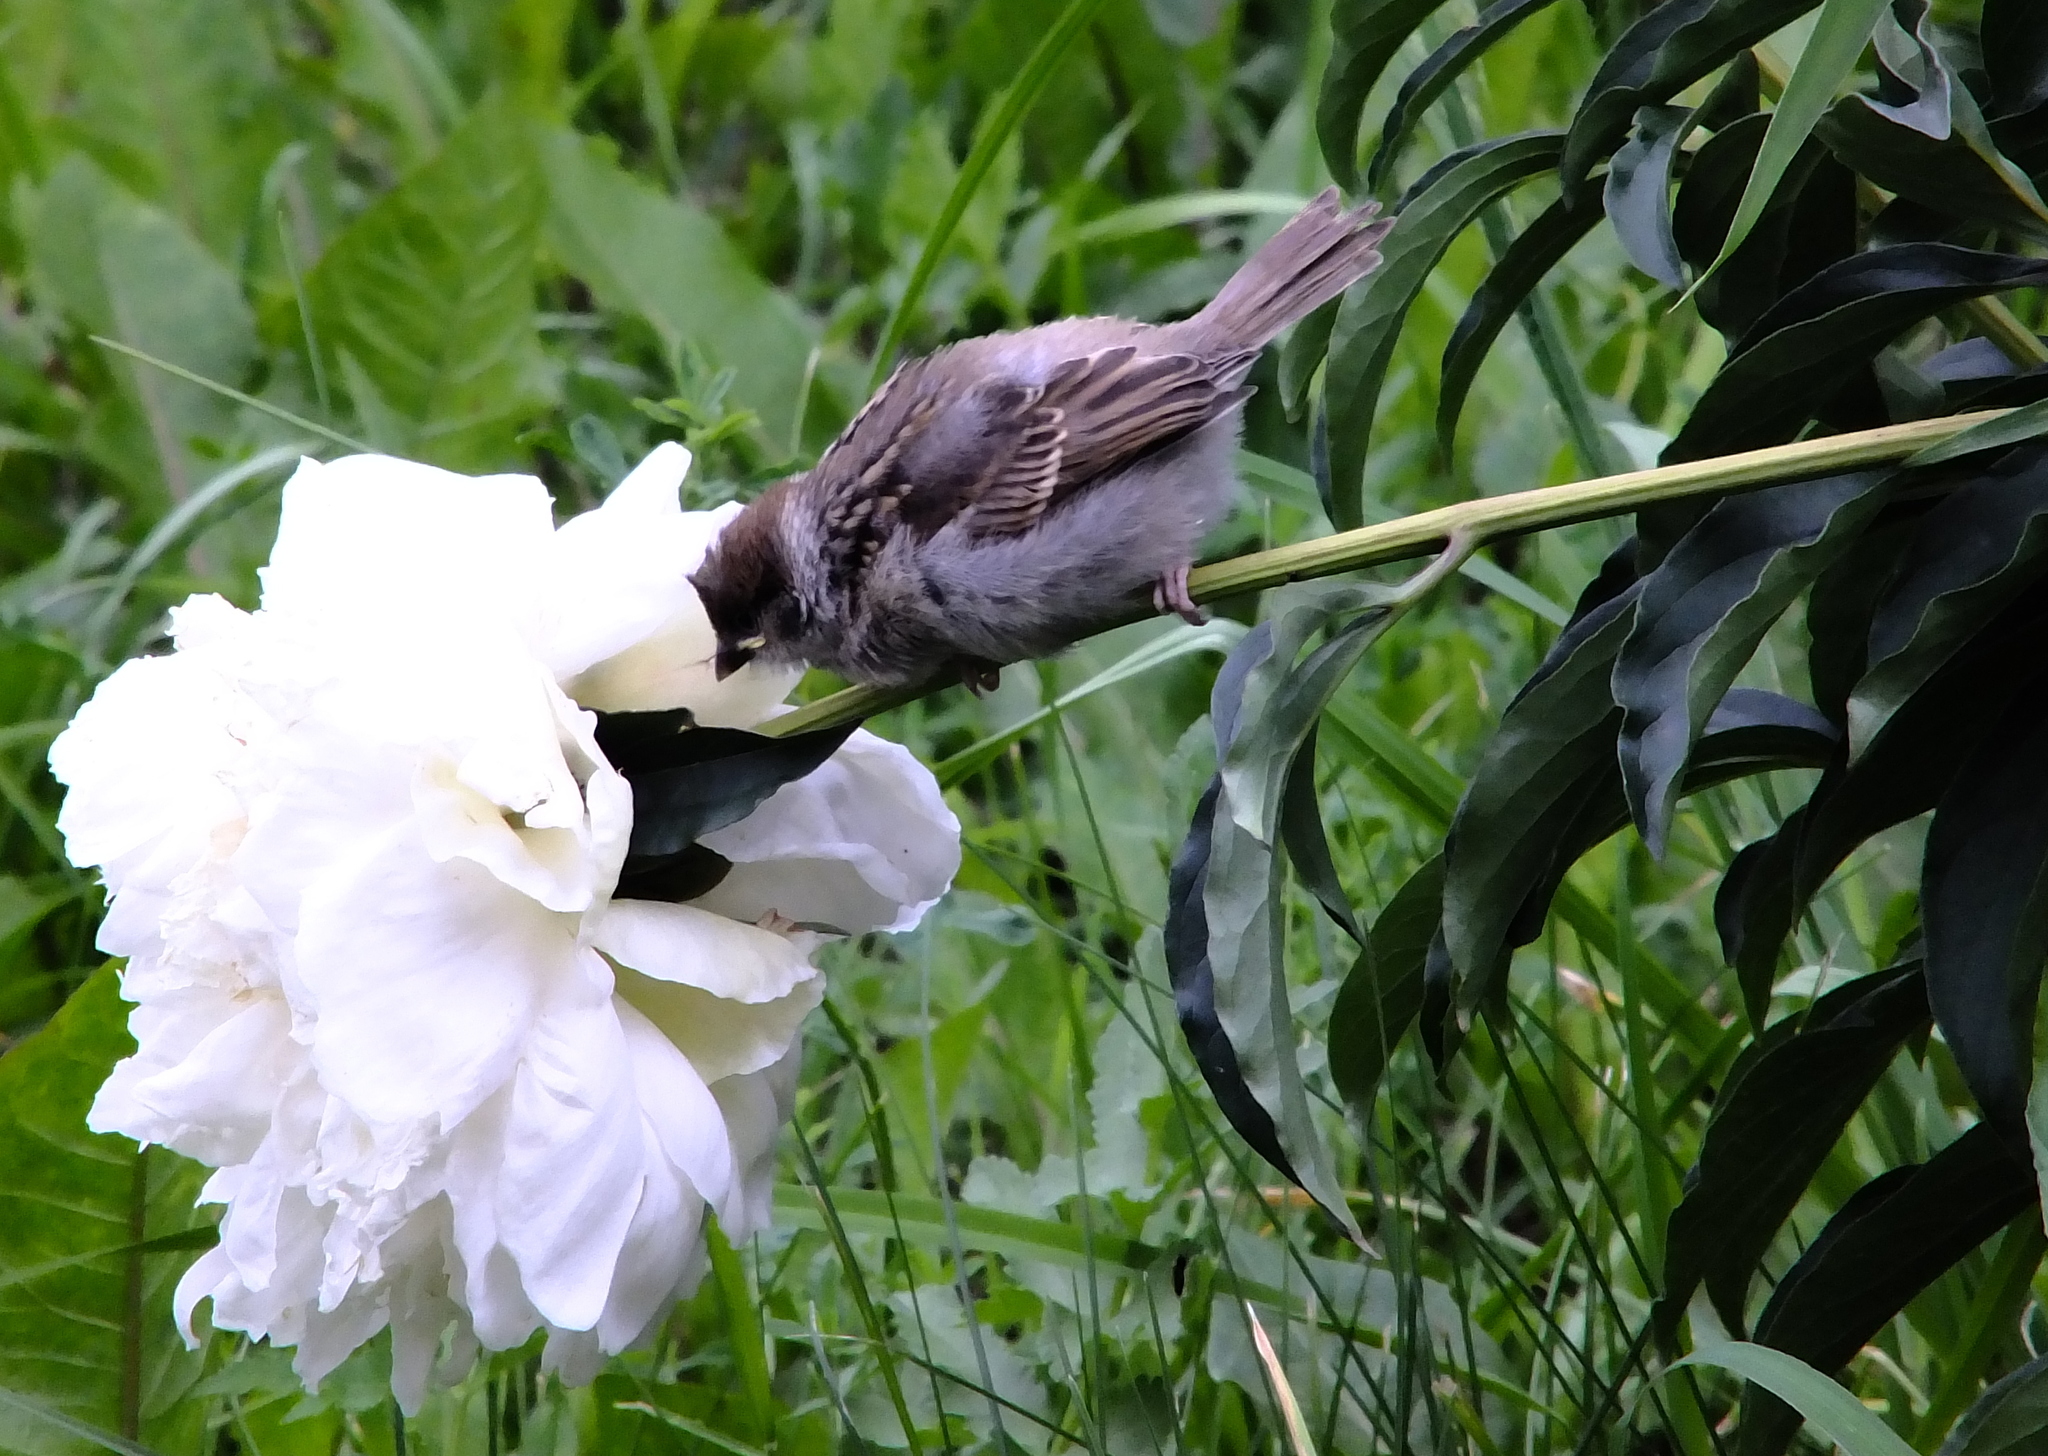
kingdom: Animalia
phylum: Chordata
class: Aves
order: Passeriformes
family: Passeridae
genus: Passer
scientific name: Passer montanus
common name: Eurasian tree sparrow
